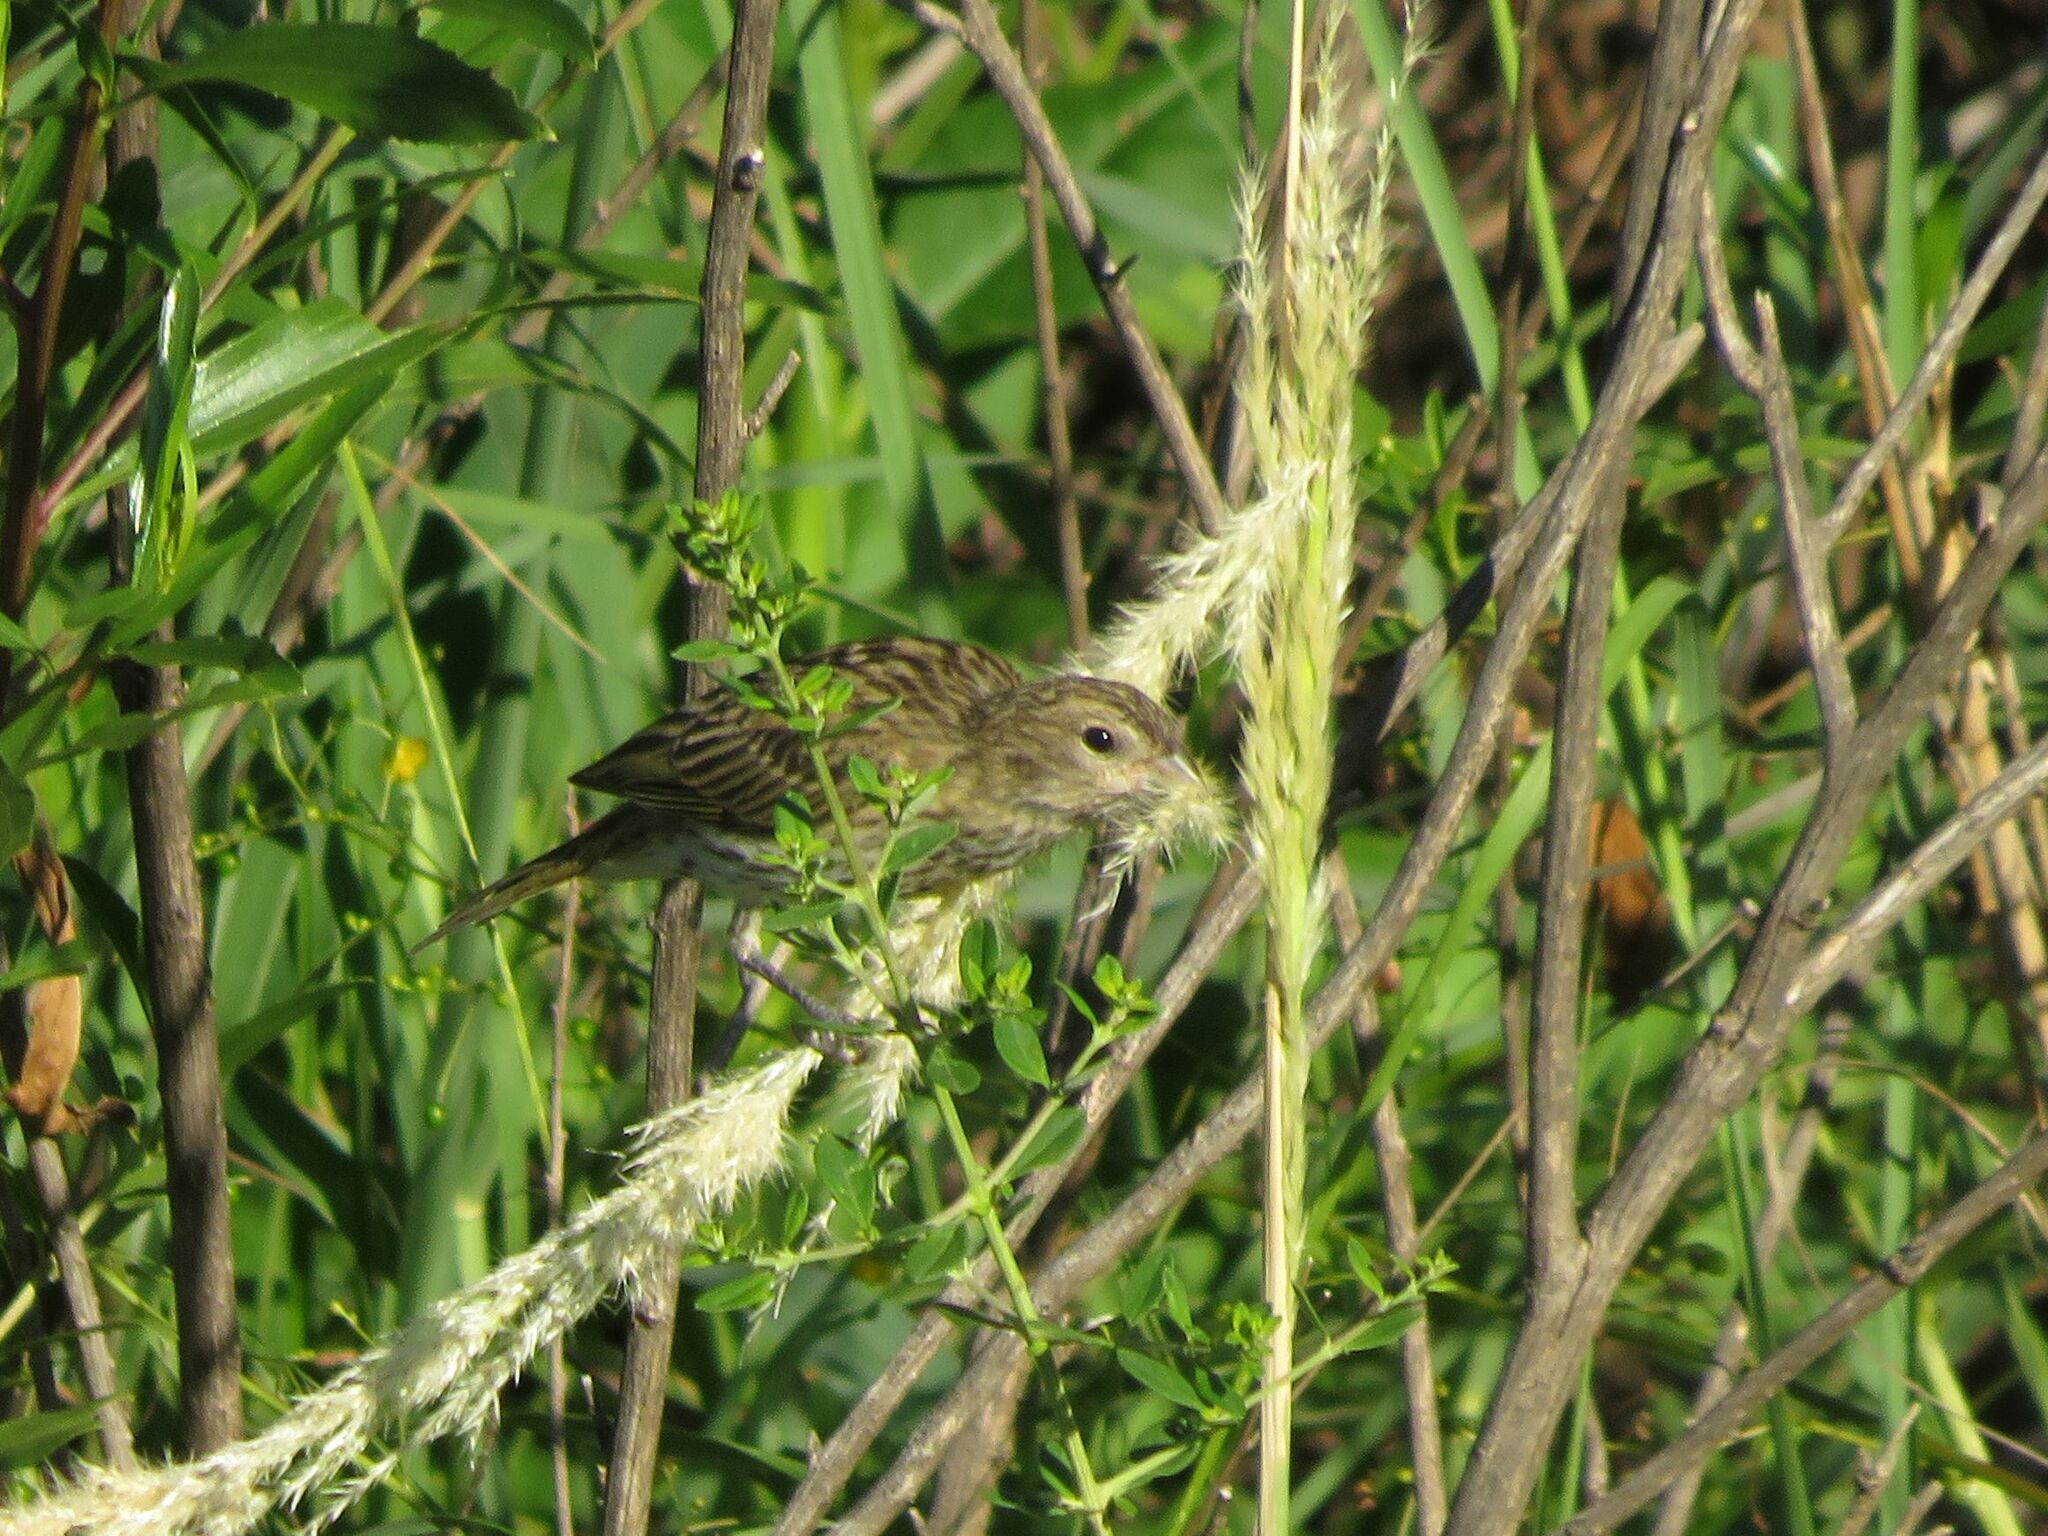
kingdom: Animalia
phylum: Chordata
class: Aves
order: Passeriformes
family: Thraupidae
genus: Sicalis
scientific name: Sicalis flaveola
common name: Saffron finch
